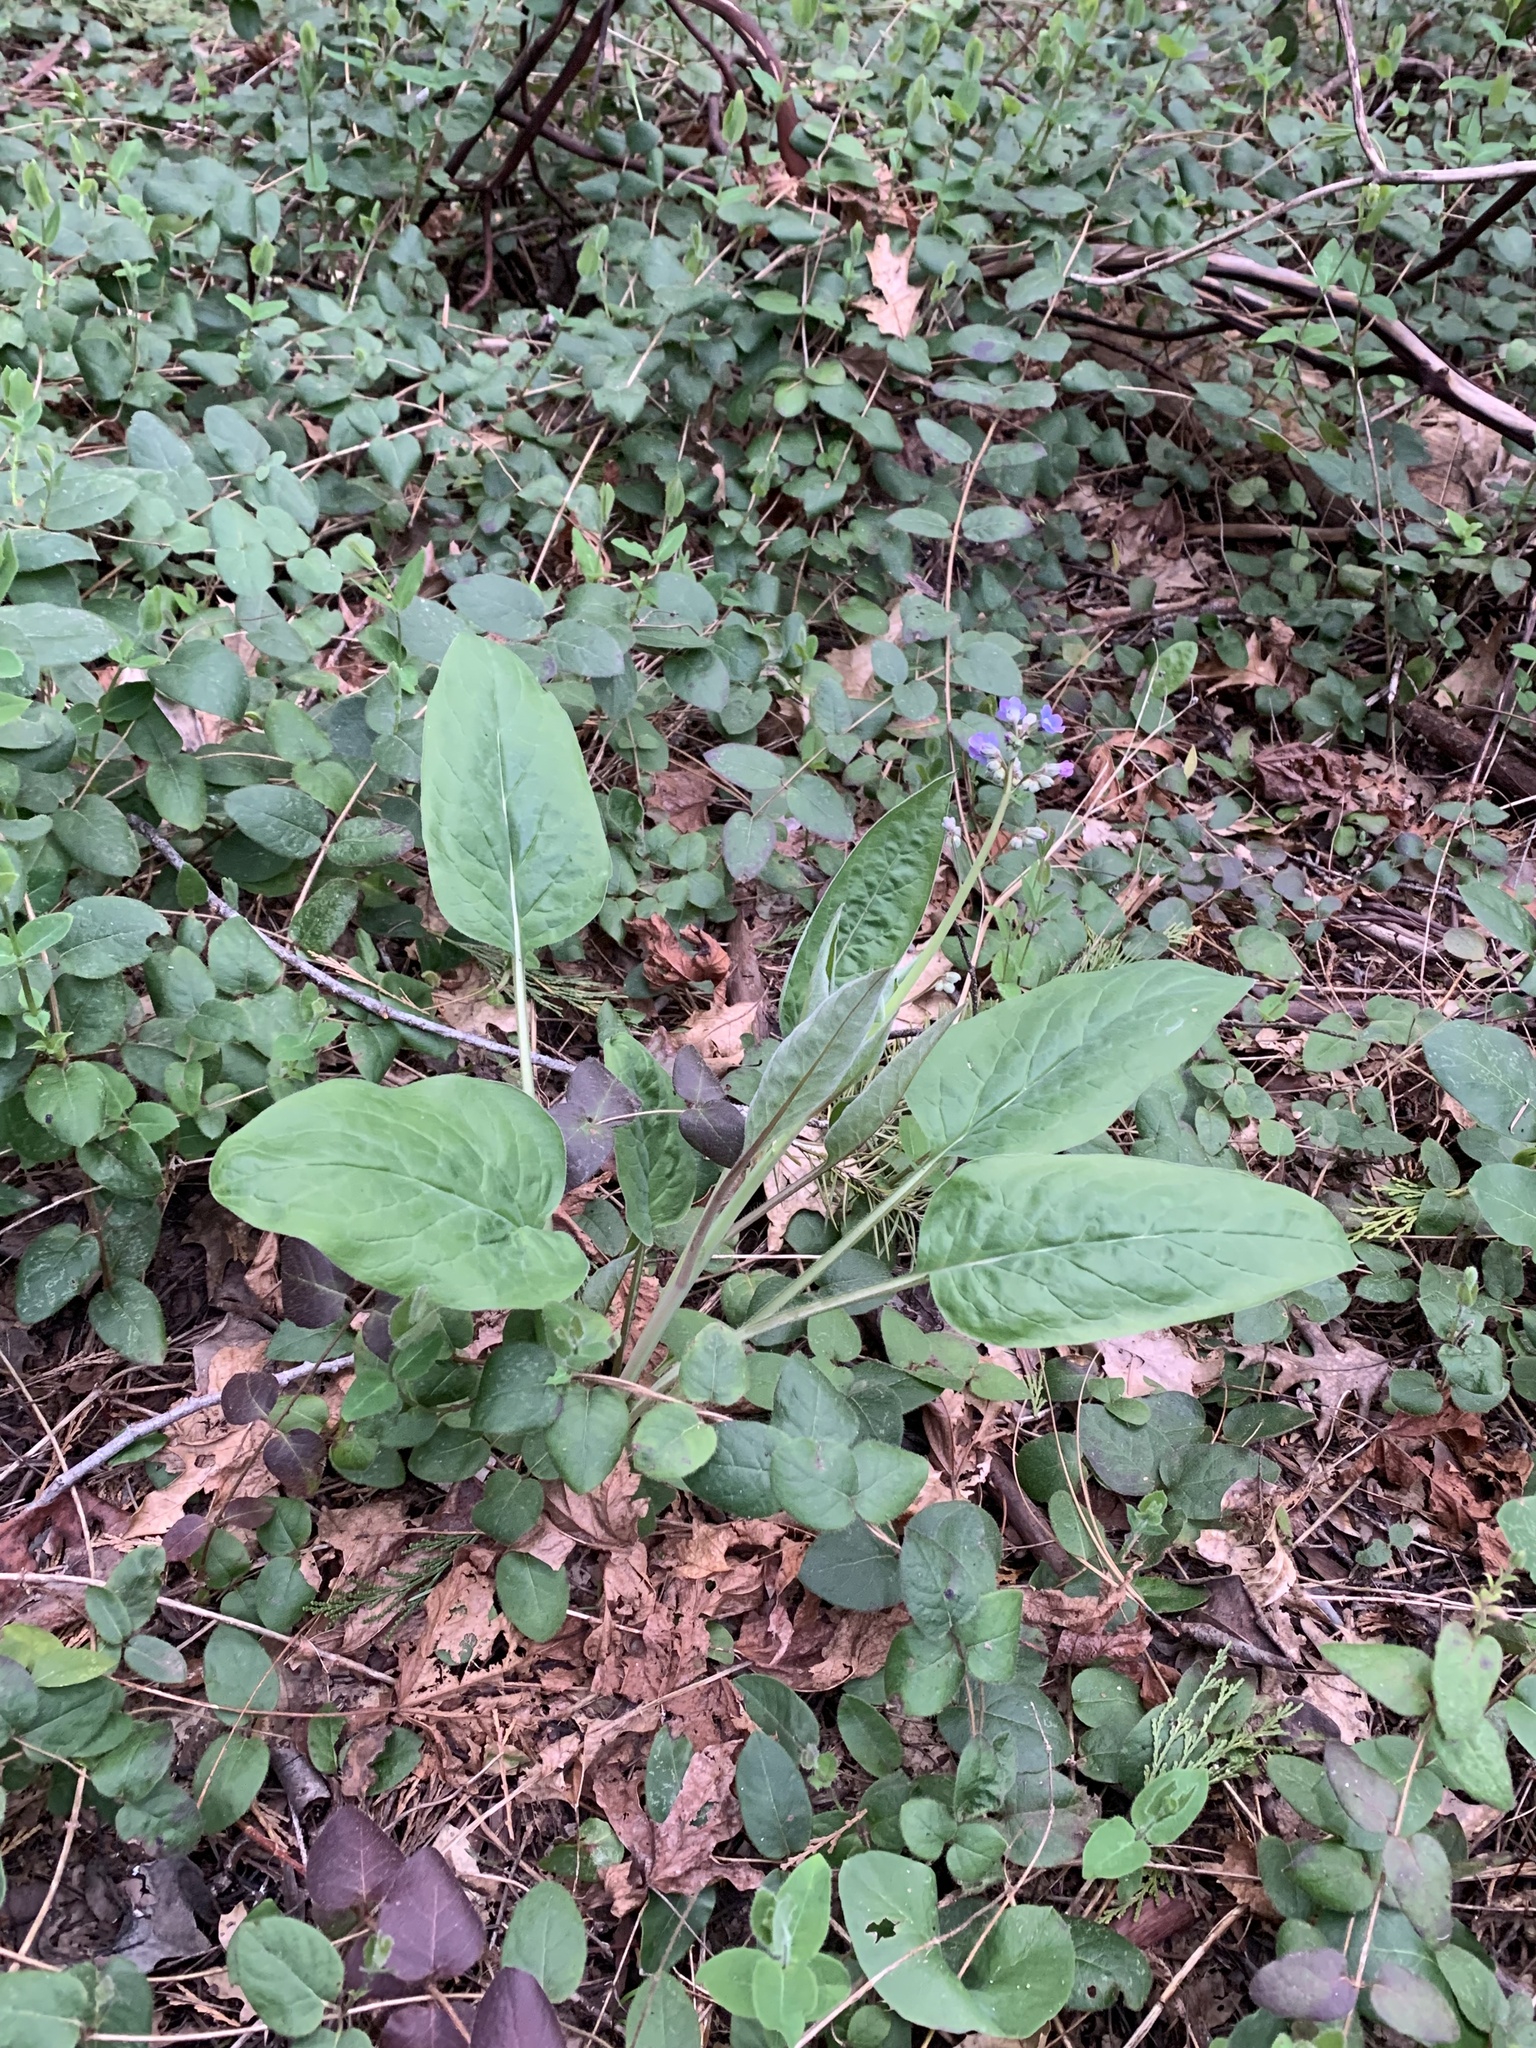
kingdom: Plantae
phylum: Tracheophyta
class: Magnoliopsida
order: Boraginales
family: Boraginaceae
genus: Adelinia
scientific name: Adelinia grande
